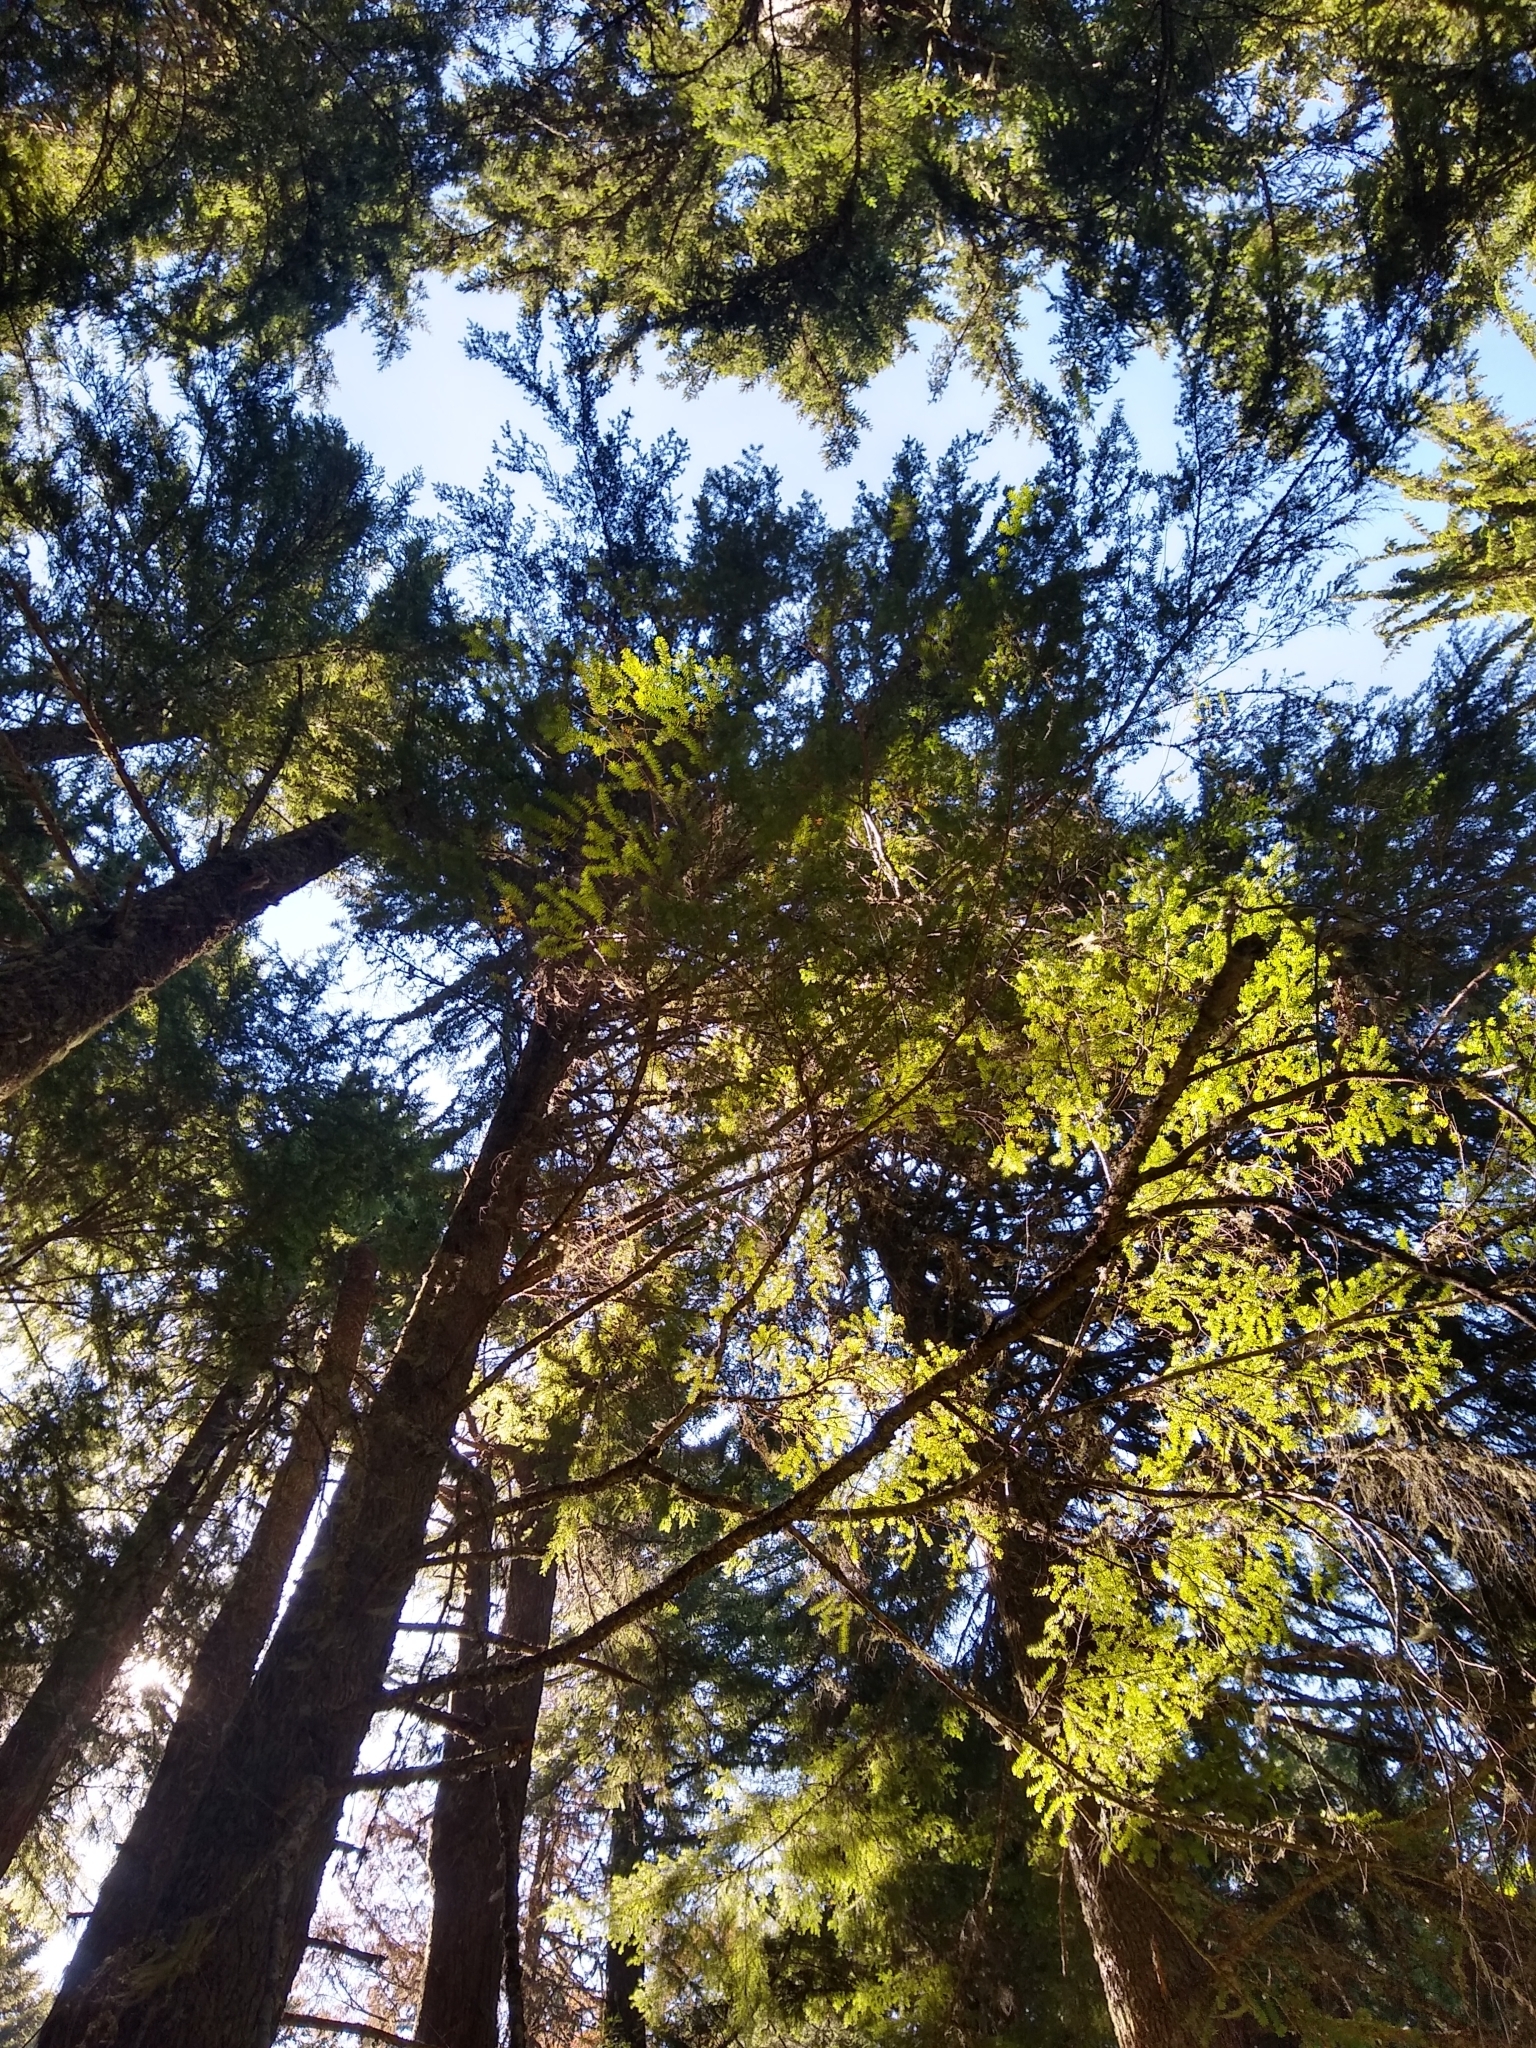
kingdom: Plantae
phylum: Tracheophyta
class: Pinopsida
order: Pinales
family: Pinaceae
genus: Tsuga
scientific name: Tsuga heterophylla
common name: Western hemlock
